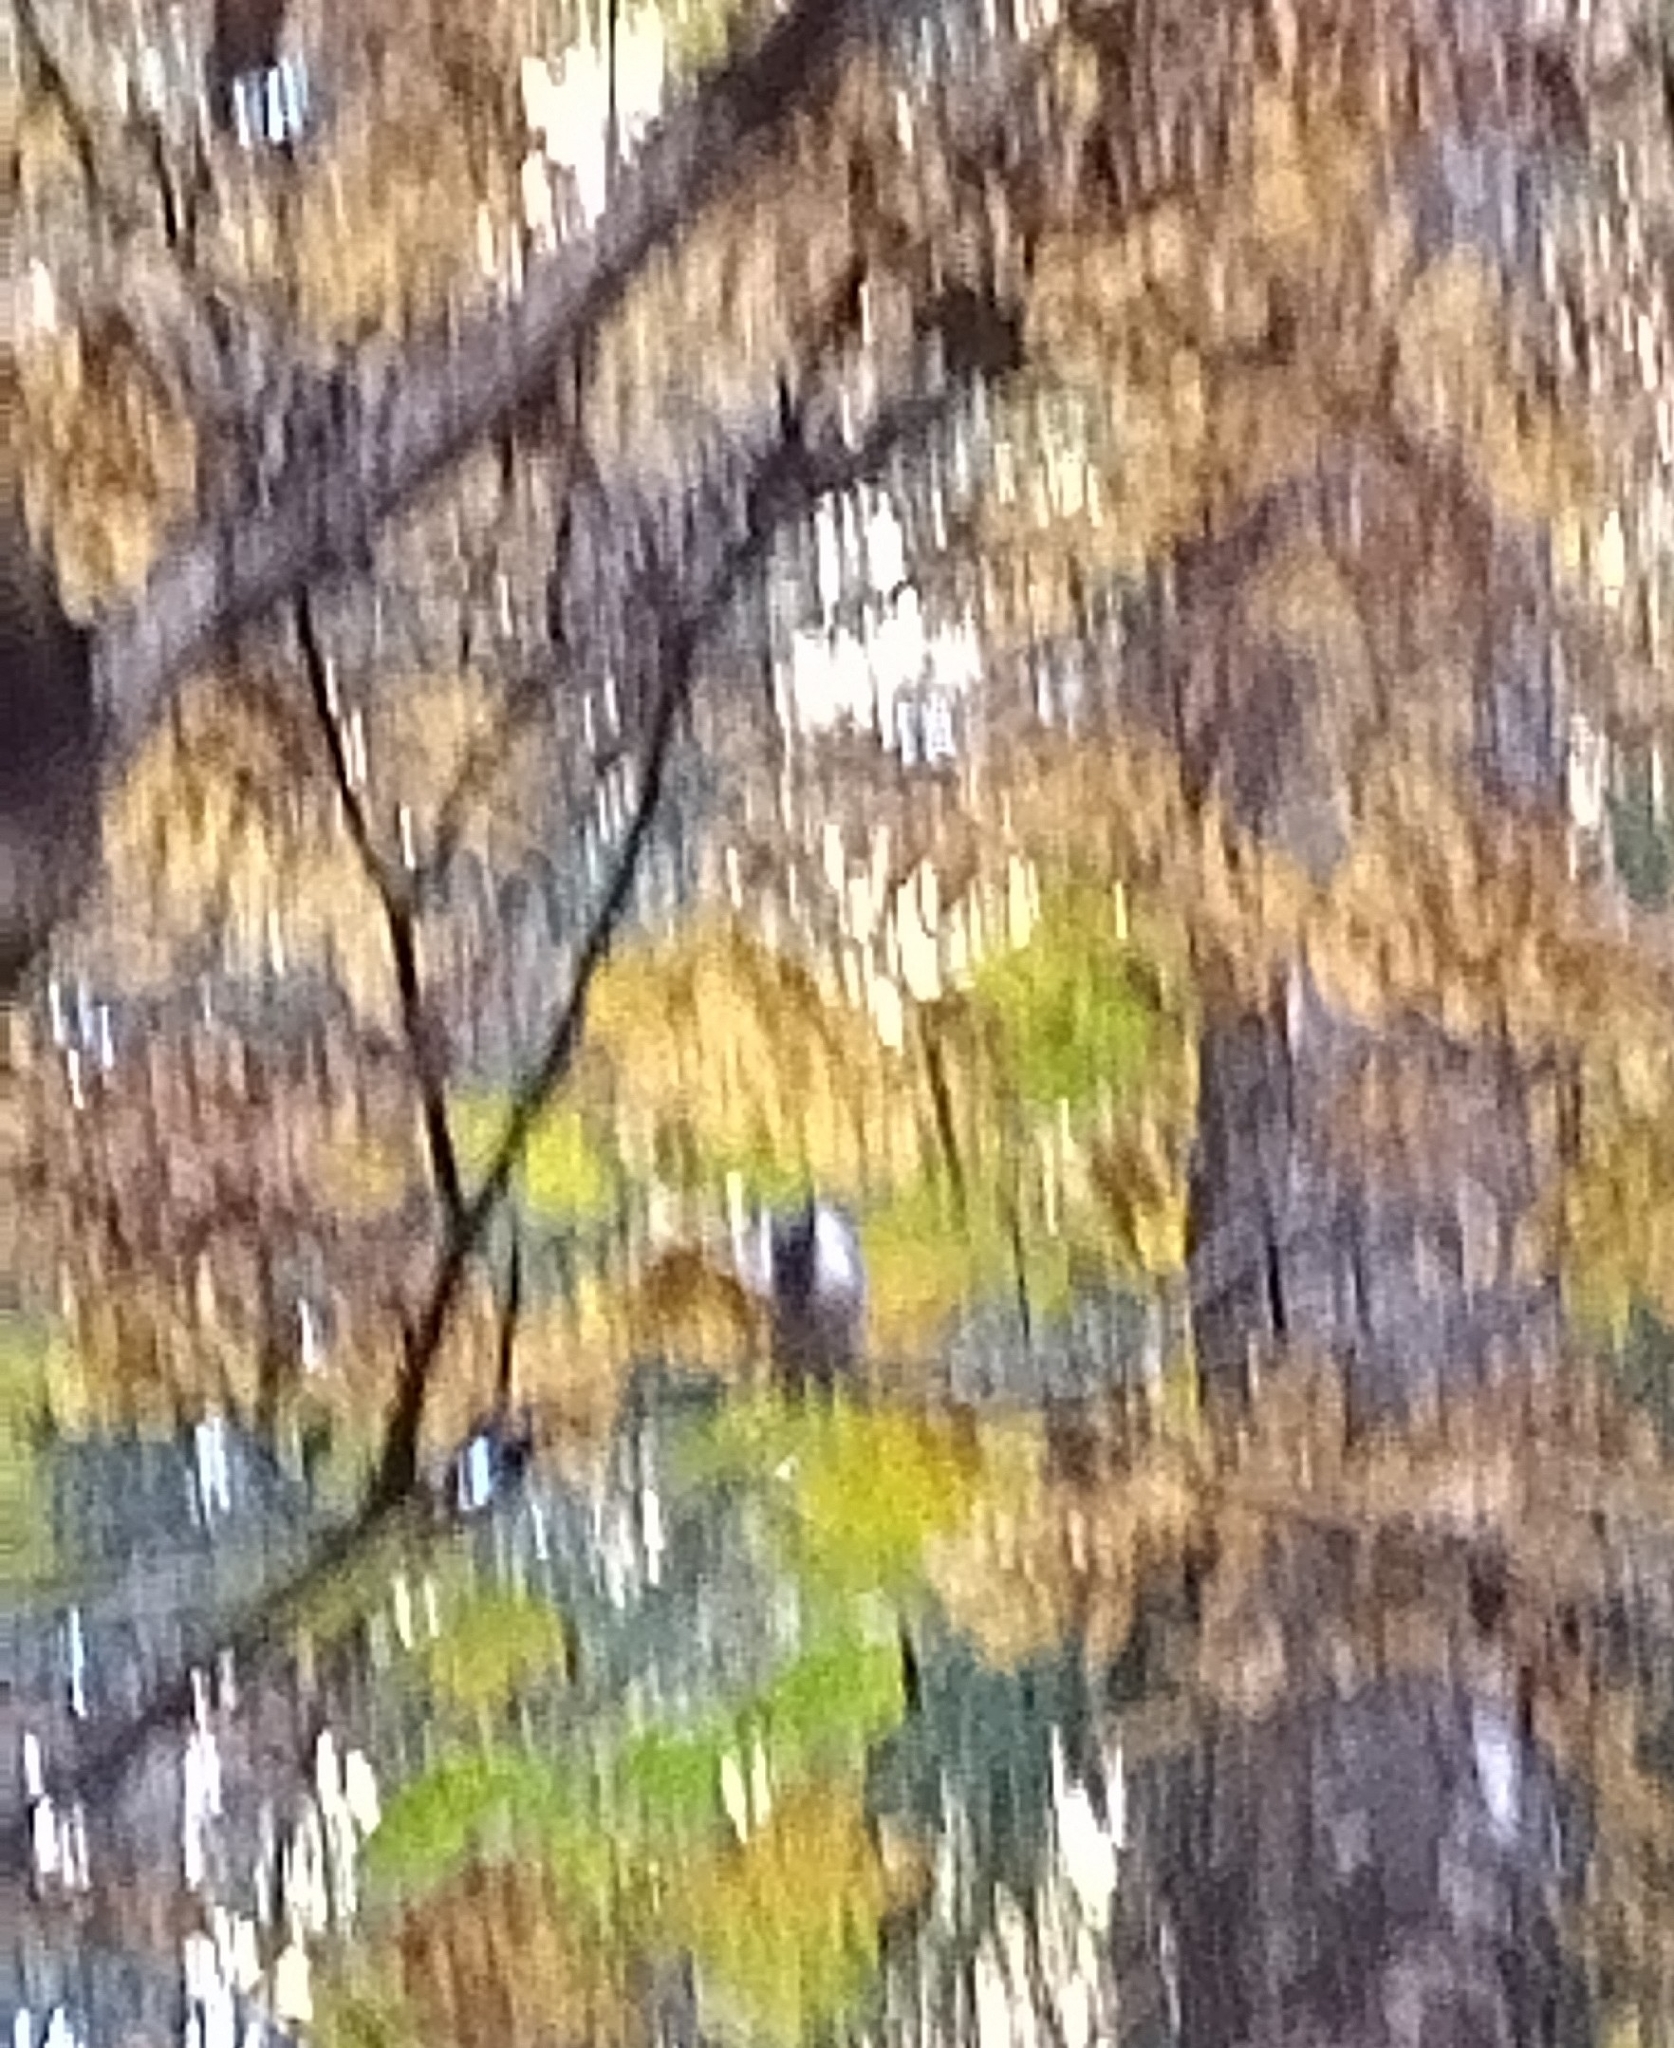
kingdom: Animalia
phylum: Chordata
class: Aves
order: Passeriformes
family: Paridae
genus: Poecile
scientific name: Poecile montanus
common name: Willow tit
